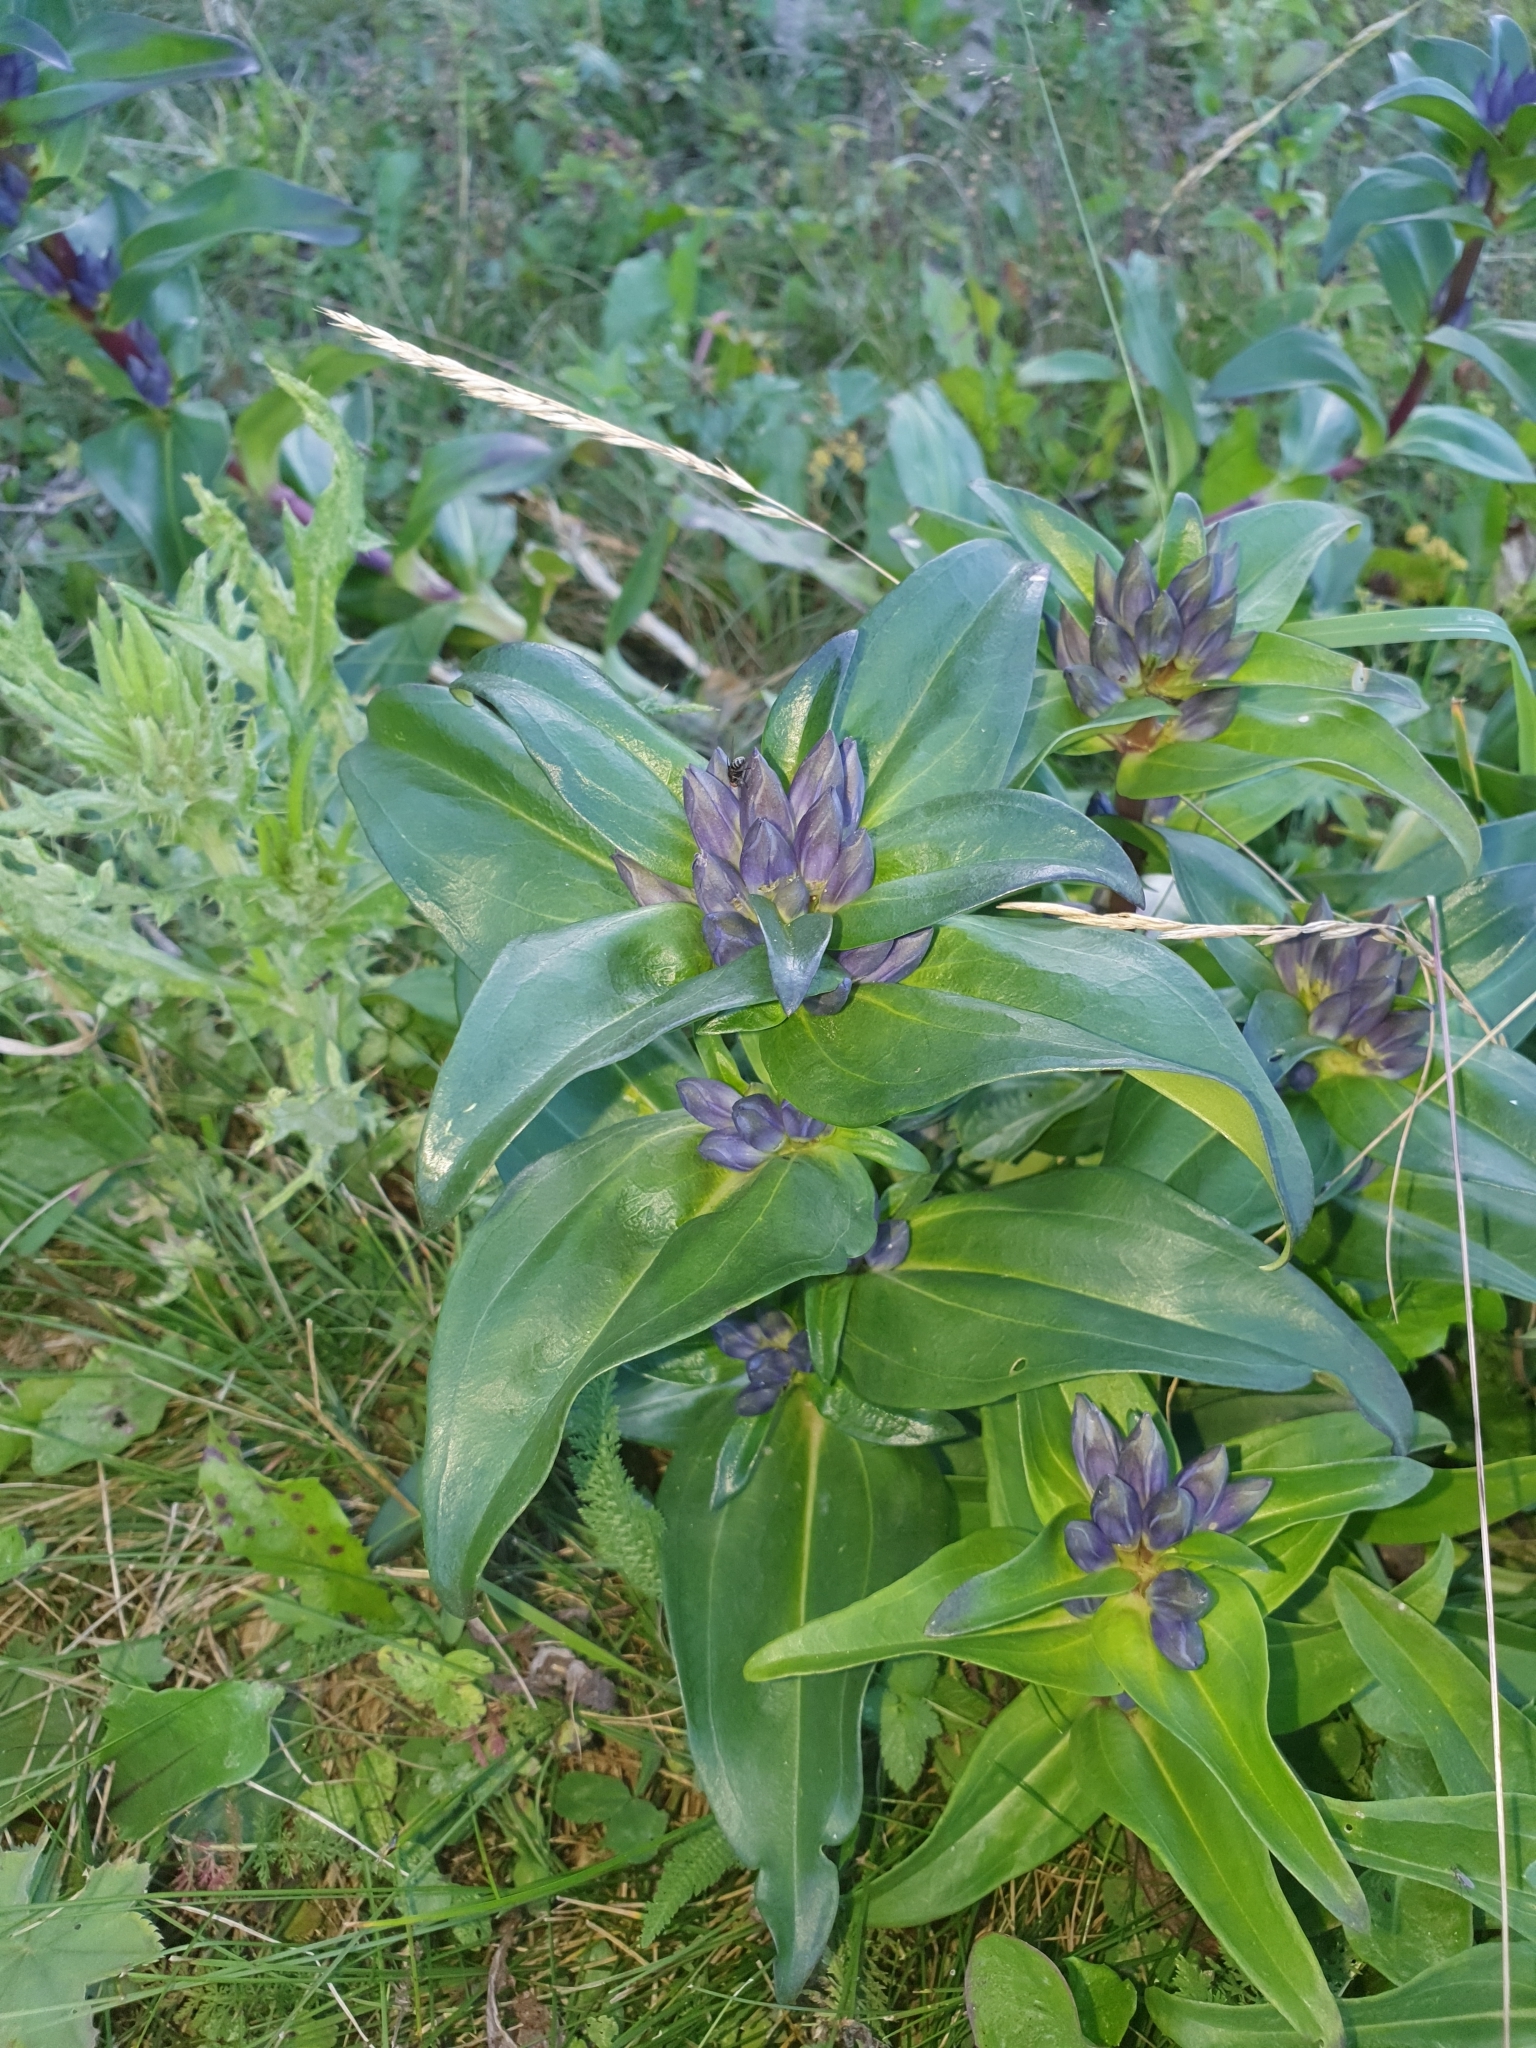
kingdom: Plantae
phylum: Tracheophyta
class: Magnoliopsida
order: Gentianales
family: Gentianaceae
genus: Gentiana
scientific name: Gentiana cruciata
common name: Cross gentian
